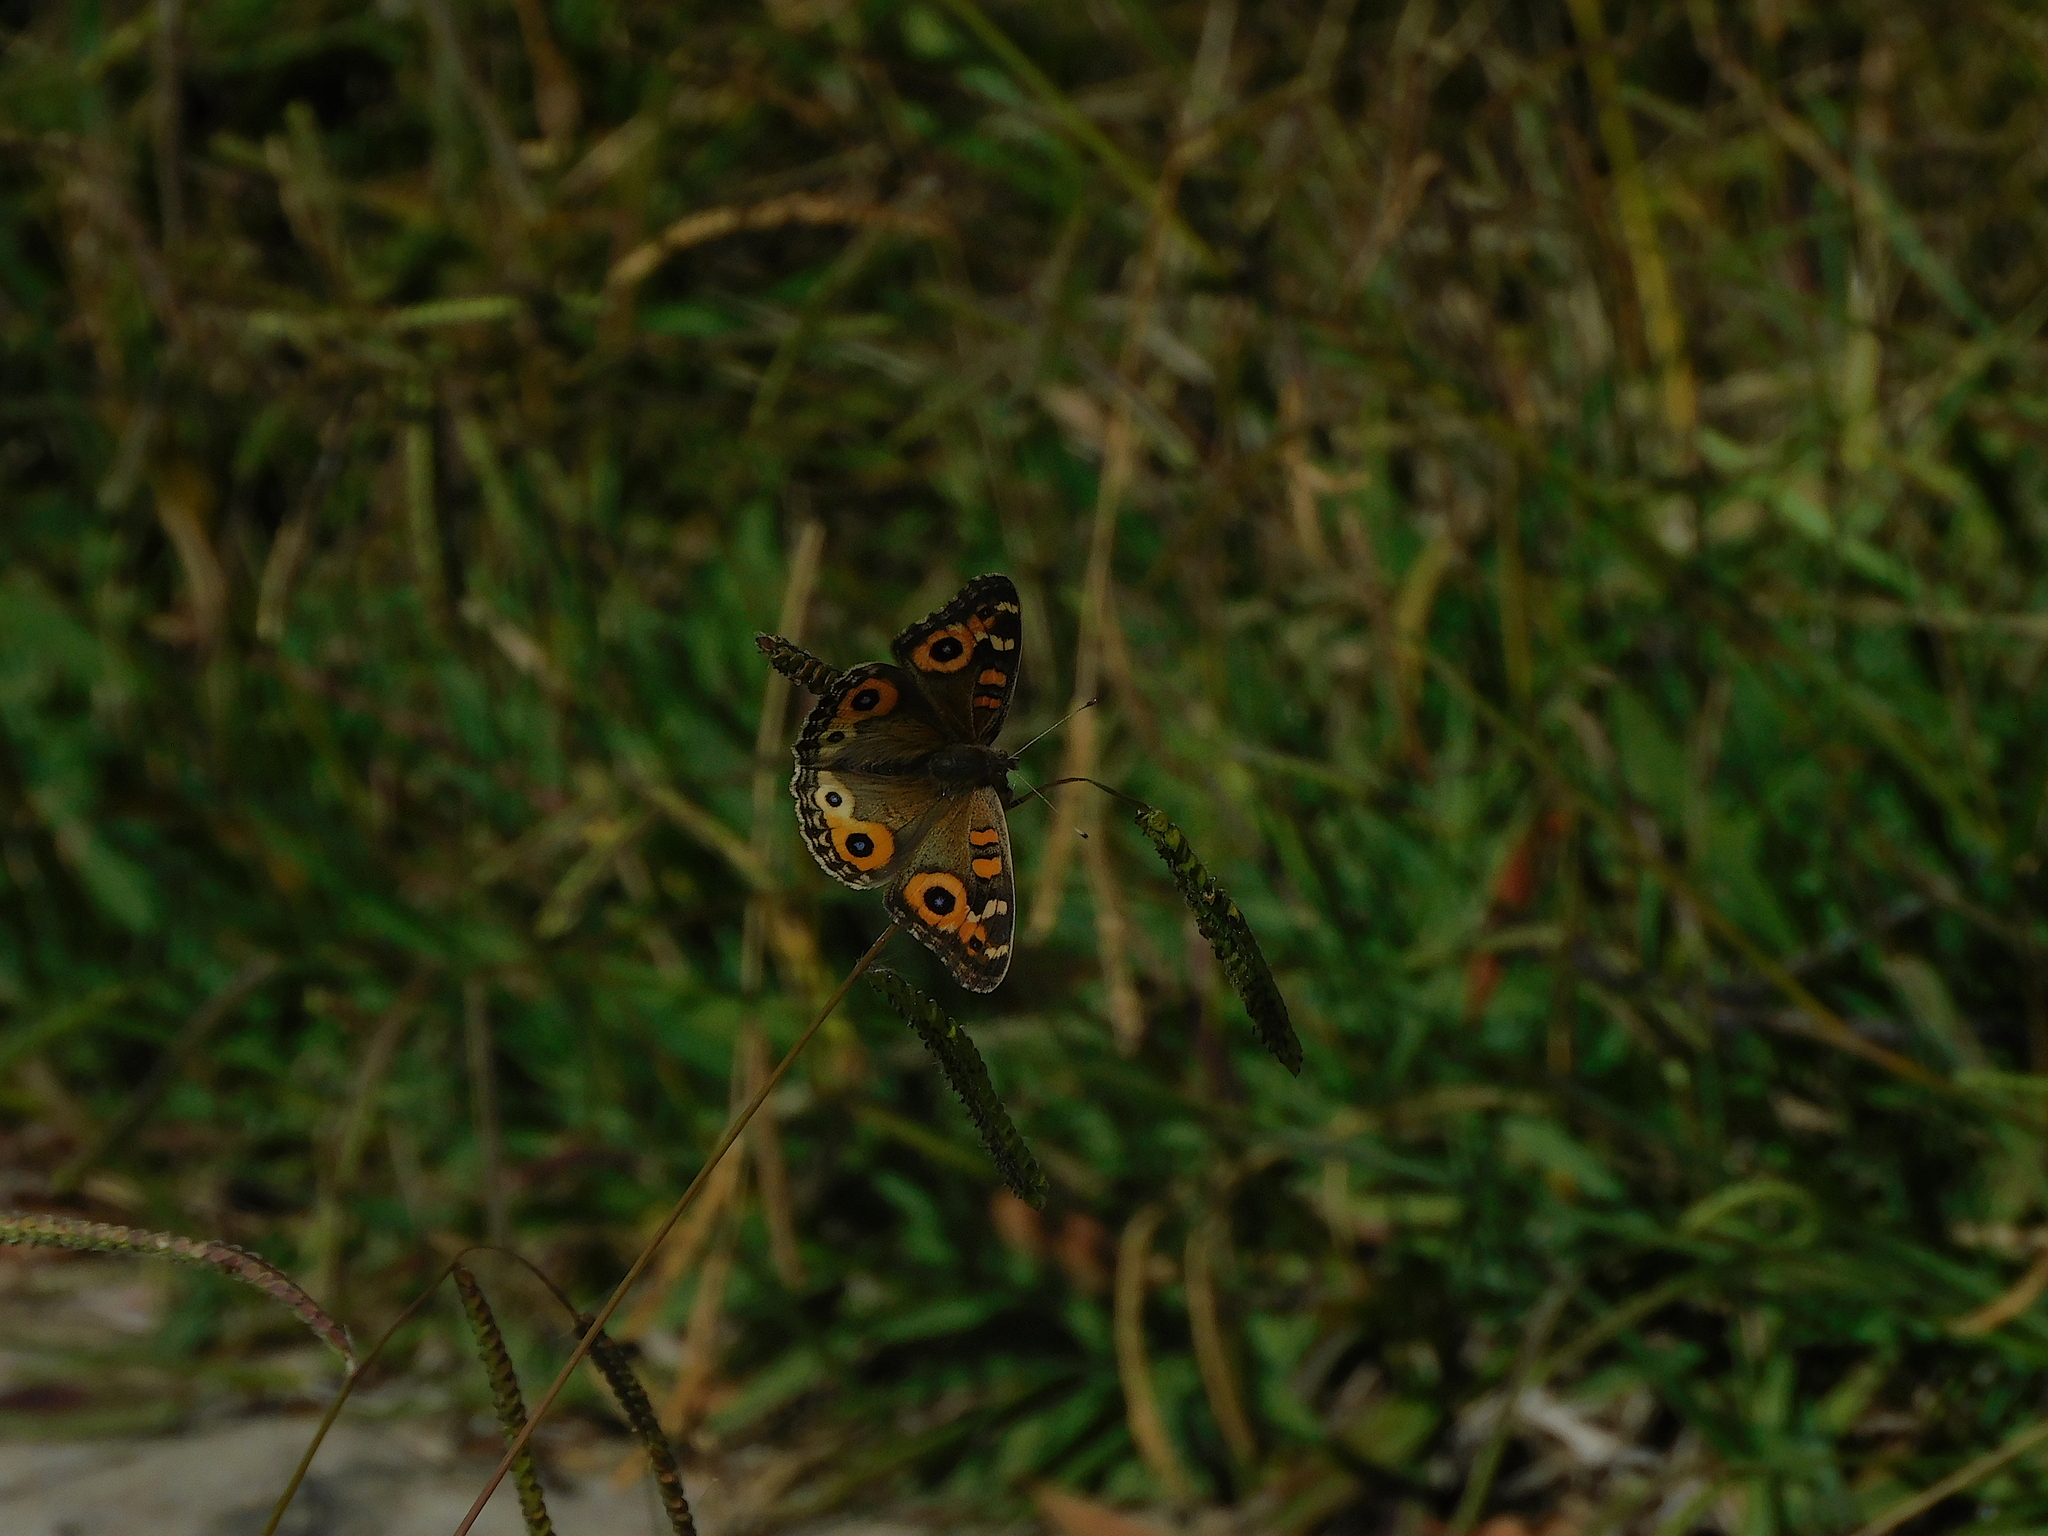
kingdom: Animalia
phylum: Arthropoda
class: Insecta
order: Lepidoptera
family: Nymphalidae
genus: Junonia
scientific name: Junonia villida
